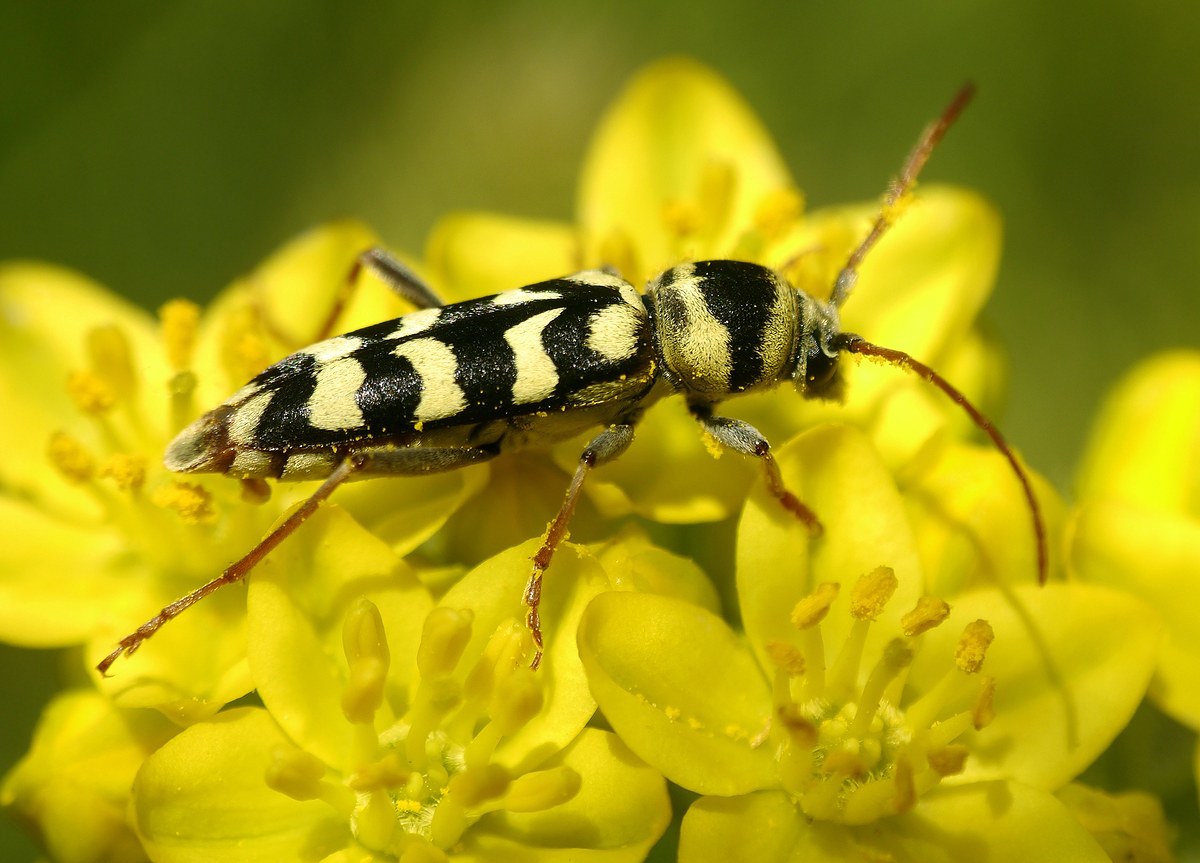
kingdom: Animalia
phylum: Arthropoda
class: Insecta
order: Coleoptera
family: Cerambycidae
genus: Plagionotus
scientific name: Plagionotus floralis
